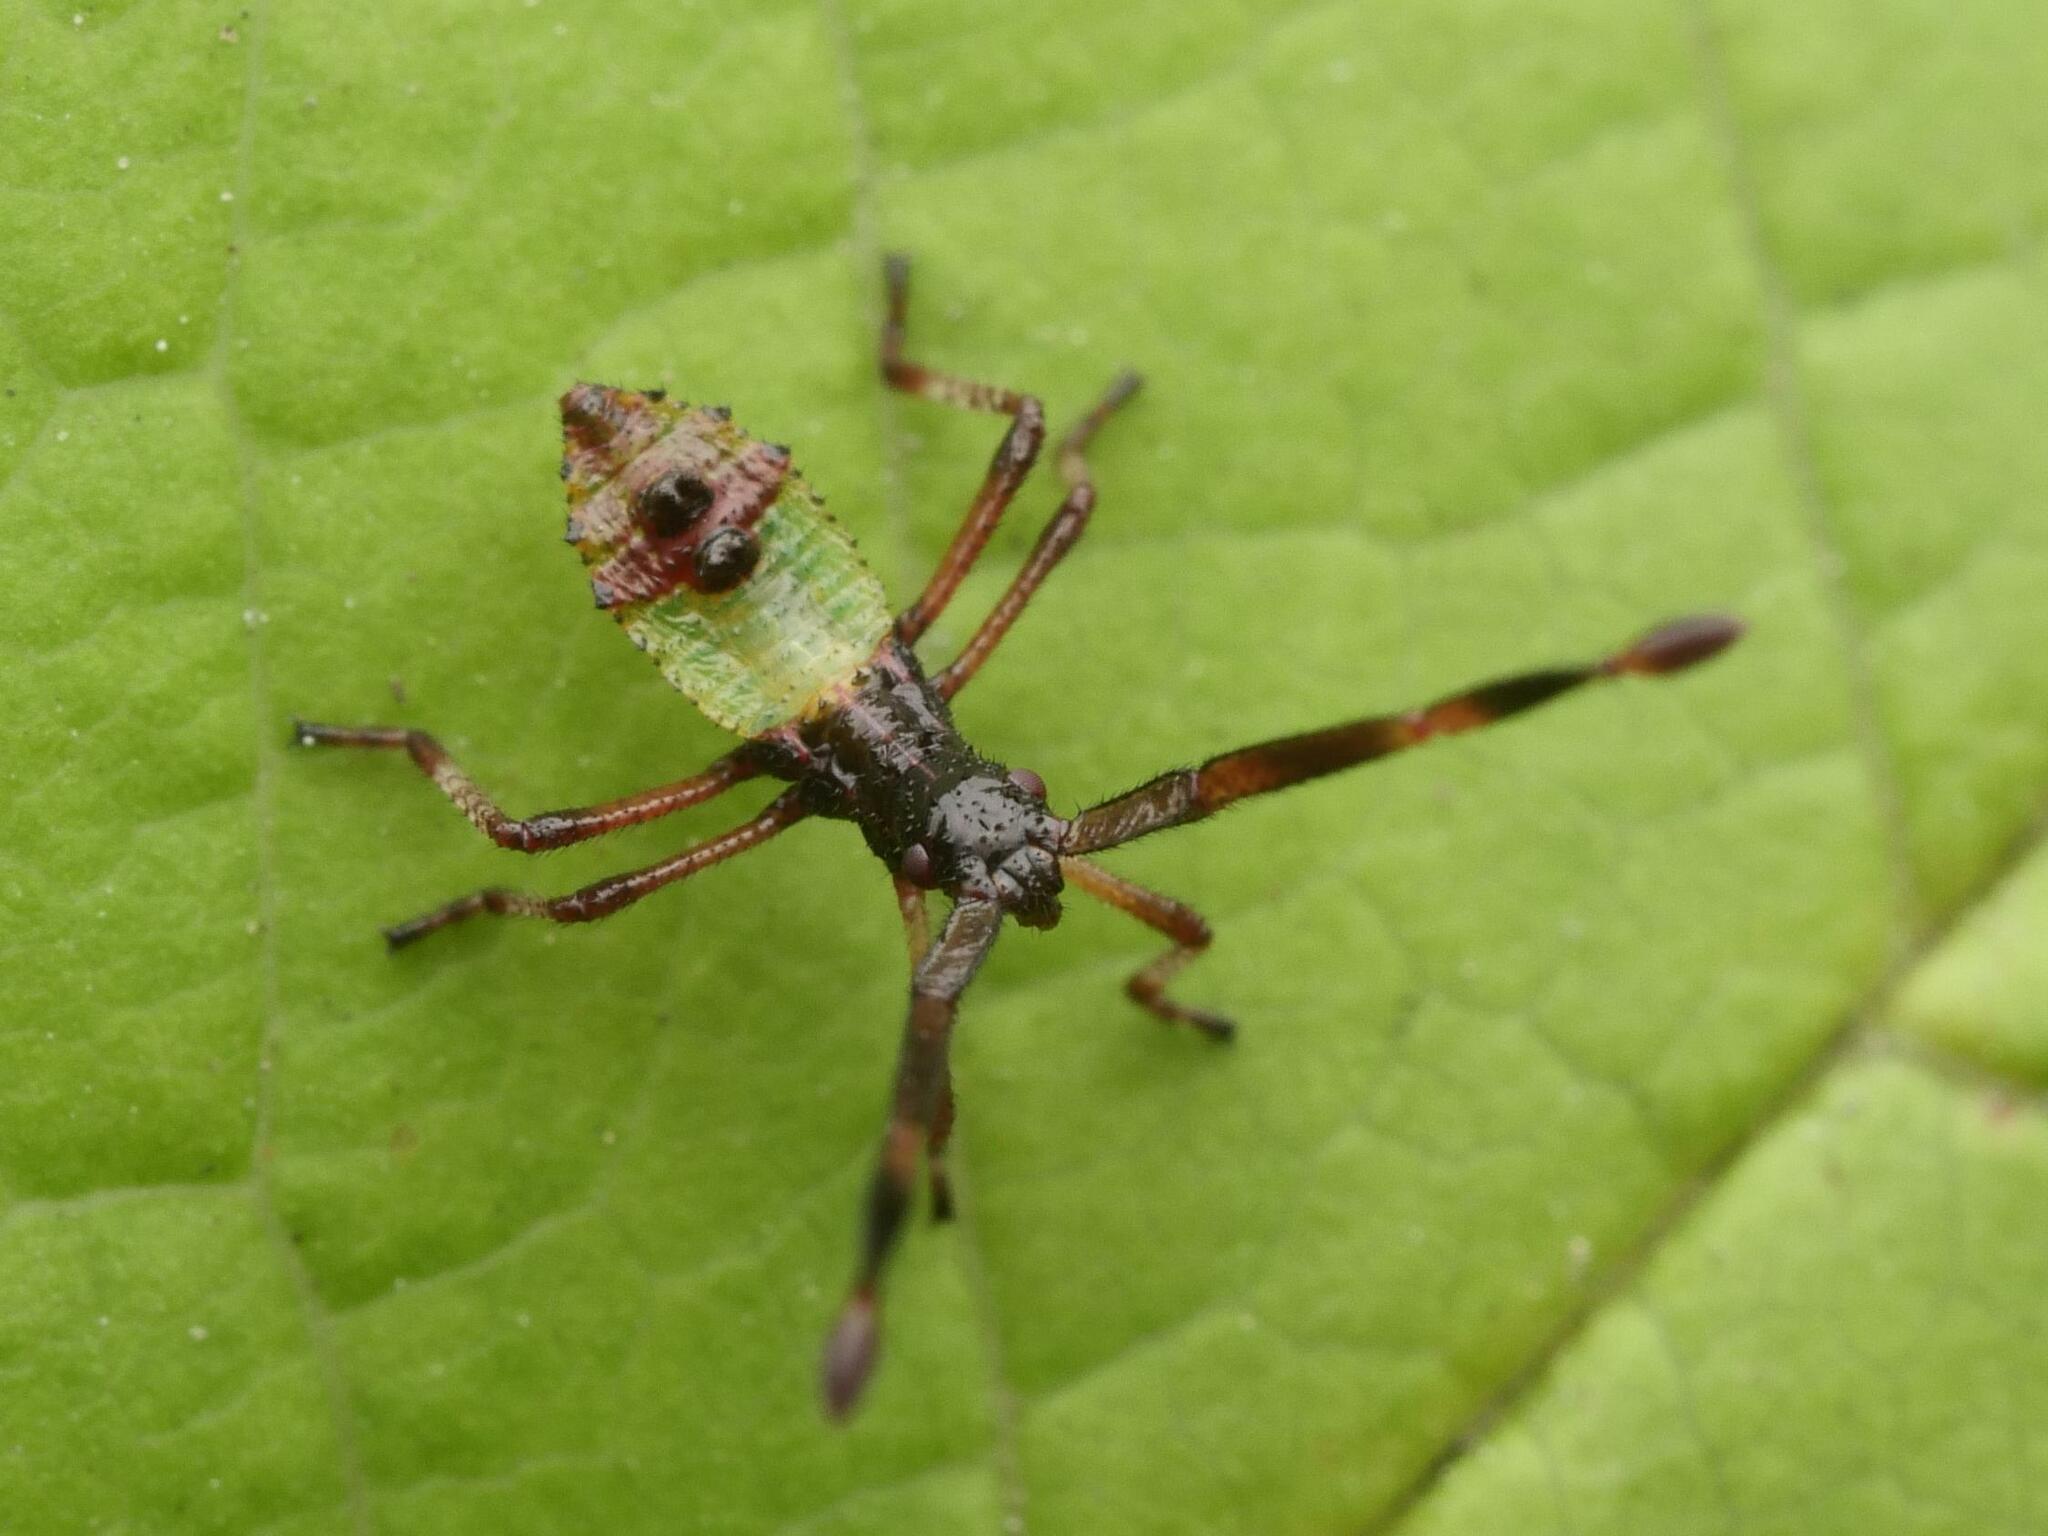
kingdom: Animalia
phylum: Arthropoda
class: Insecta
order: Hemiptera
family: Coreidae
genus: Gonocerus
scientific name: Gonocerus acuteangulatus
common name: Box bug
